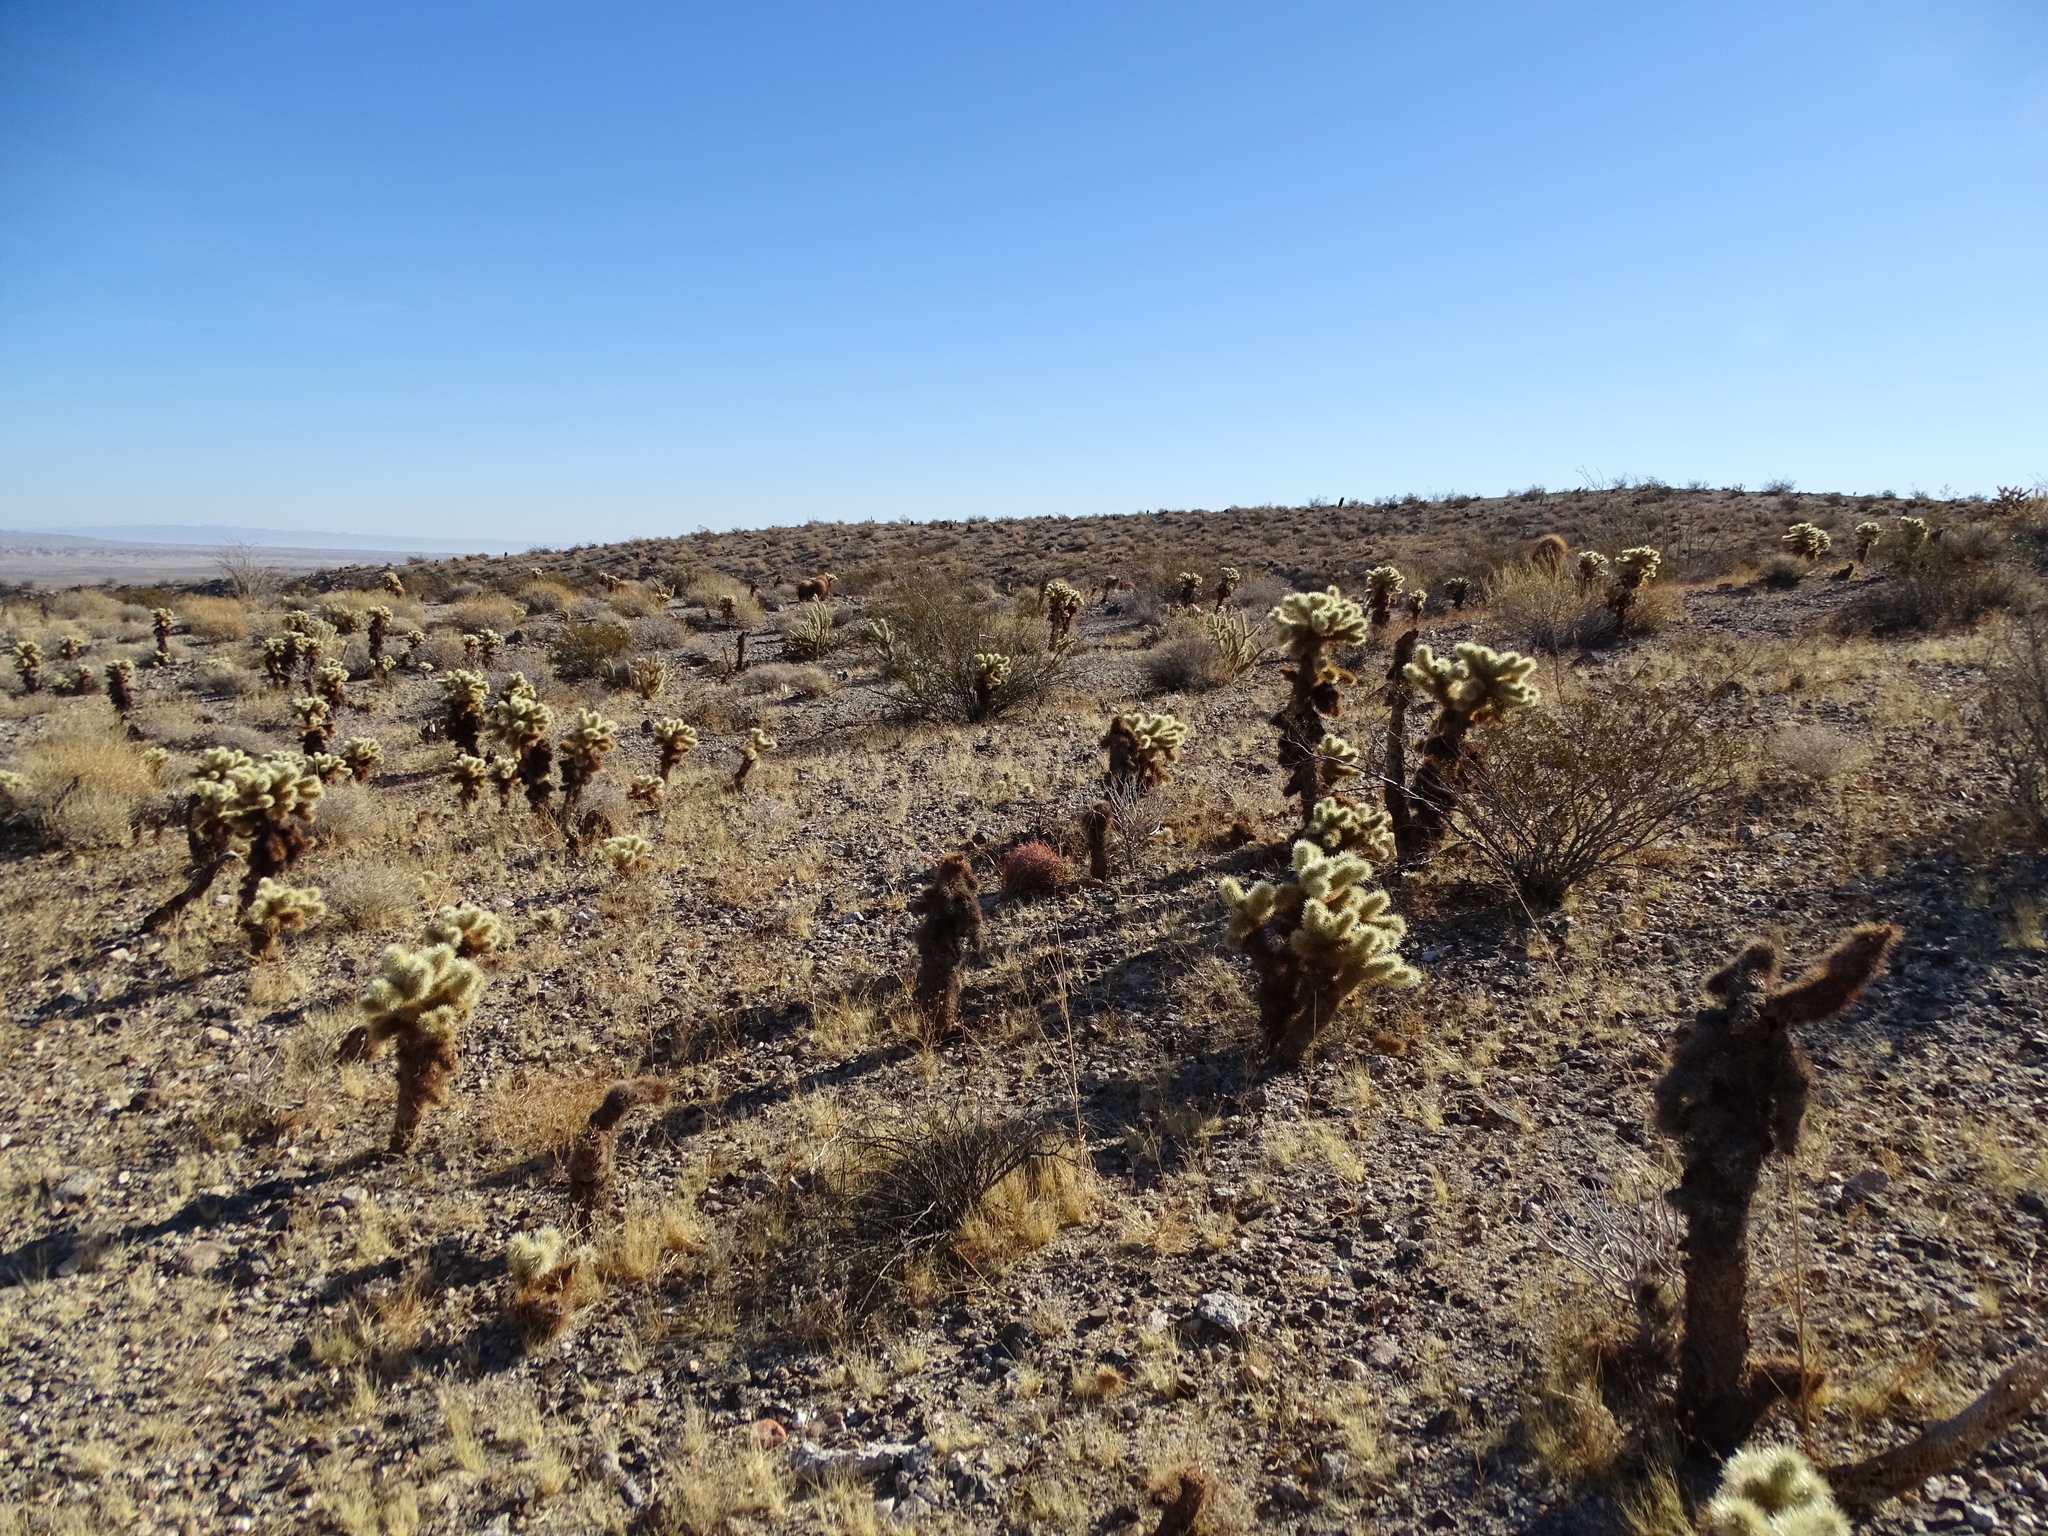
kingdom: Plantae
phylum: Tracheophyta
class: Magnoliopsida
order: Caryophyllales
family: Cactaceae
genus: Cylindropuntia
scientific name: Cylindropuntia fosbergii
